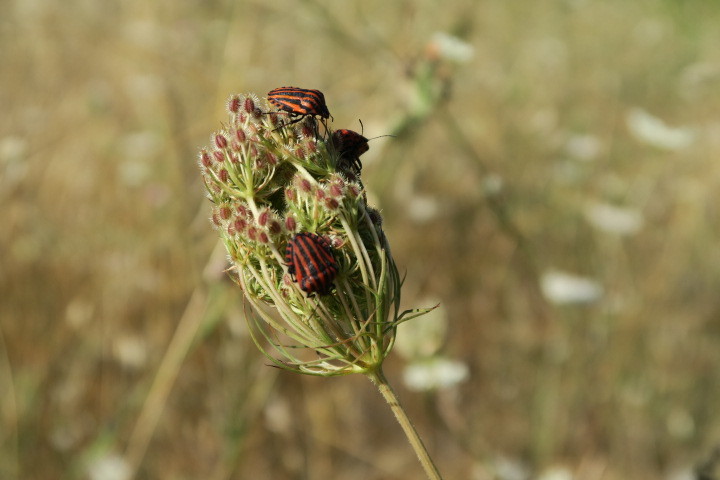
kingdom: Animalia
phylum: Arthropoda
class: Insecta
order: Hemiptera
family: Pentatomidae
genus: Graphosoma
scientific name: Graphosoma italicum
